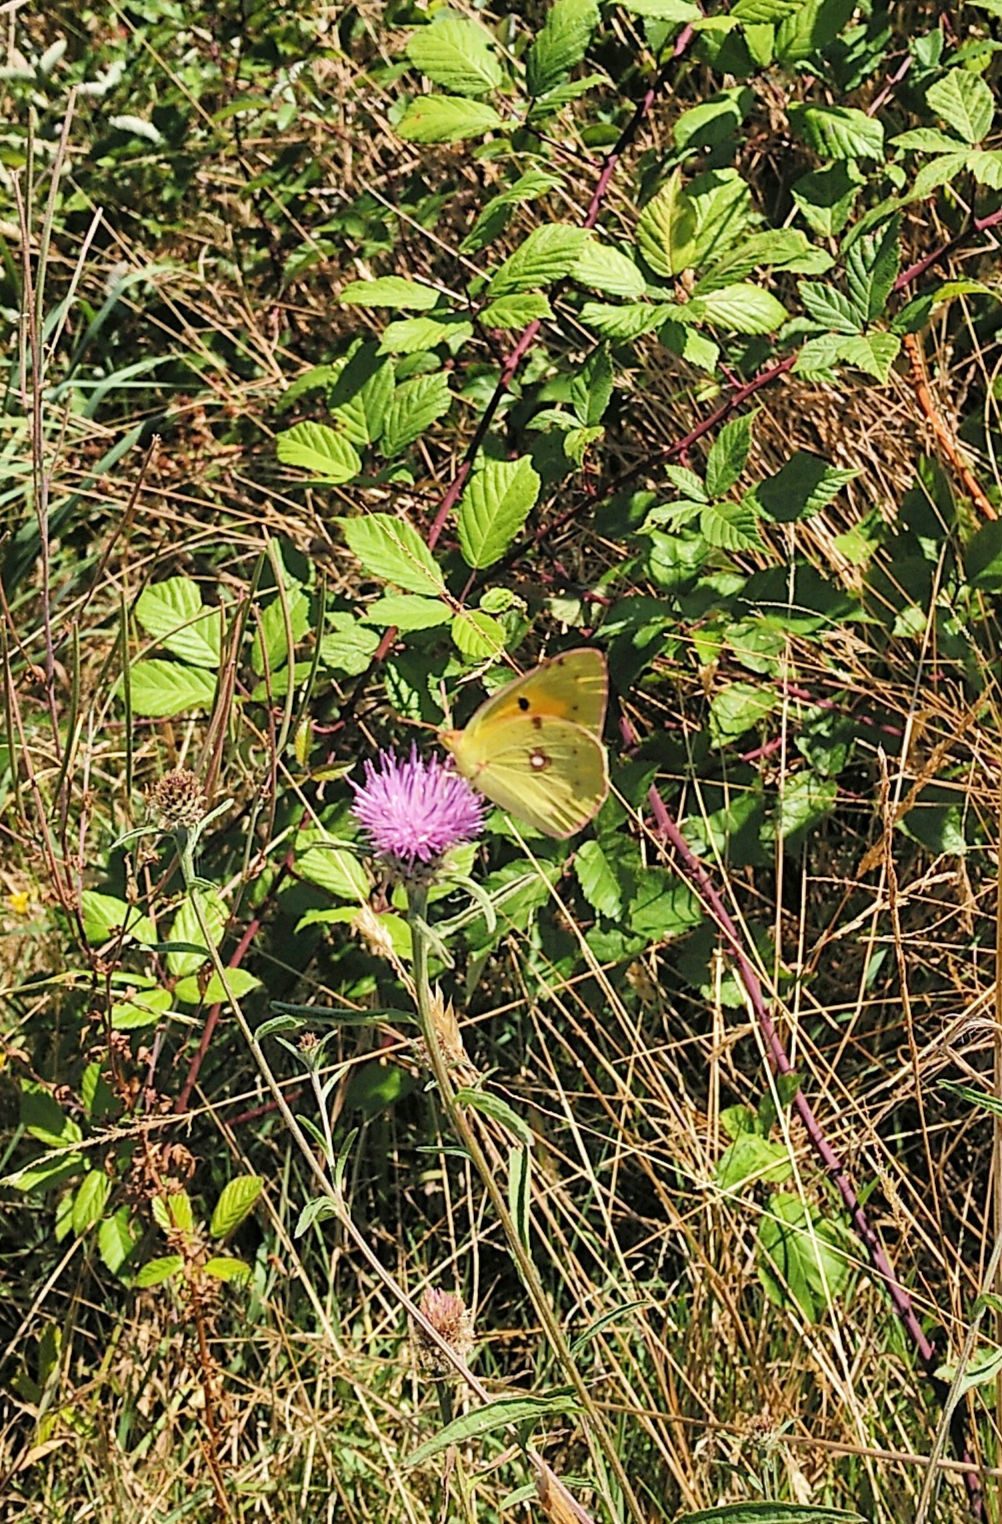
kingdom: Animalia
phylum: Arthropoda
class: Insecta
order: Lepidoptera
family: Pieridae
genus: Colias
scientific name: Colias croceus
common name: Clouded yellow
